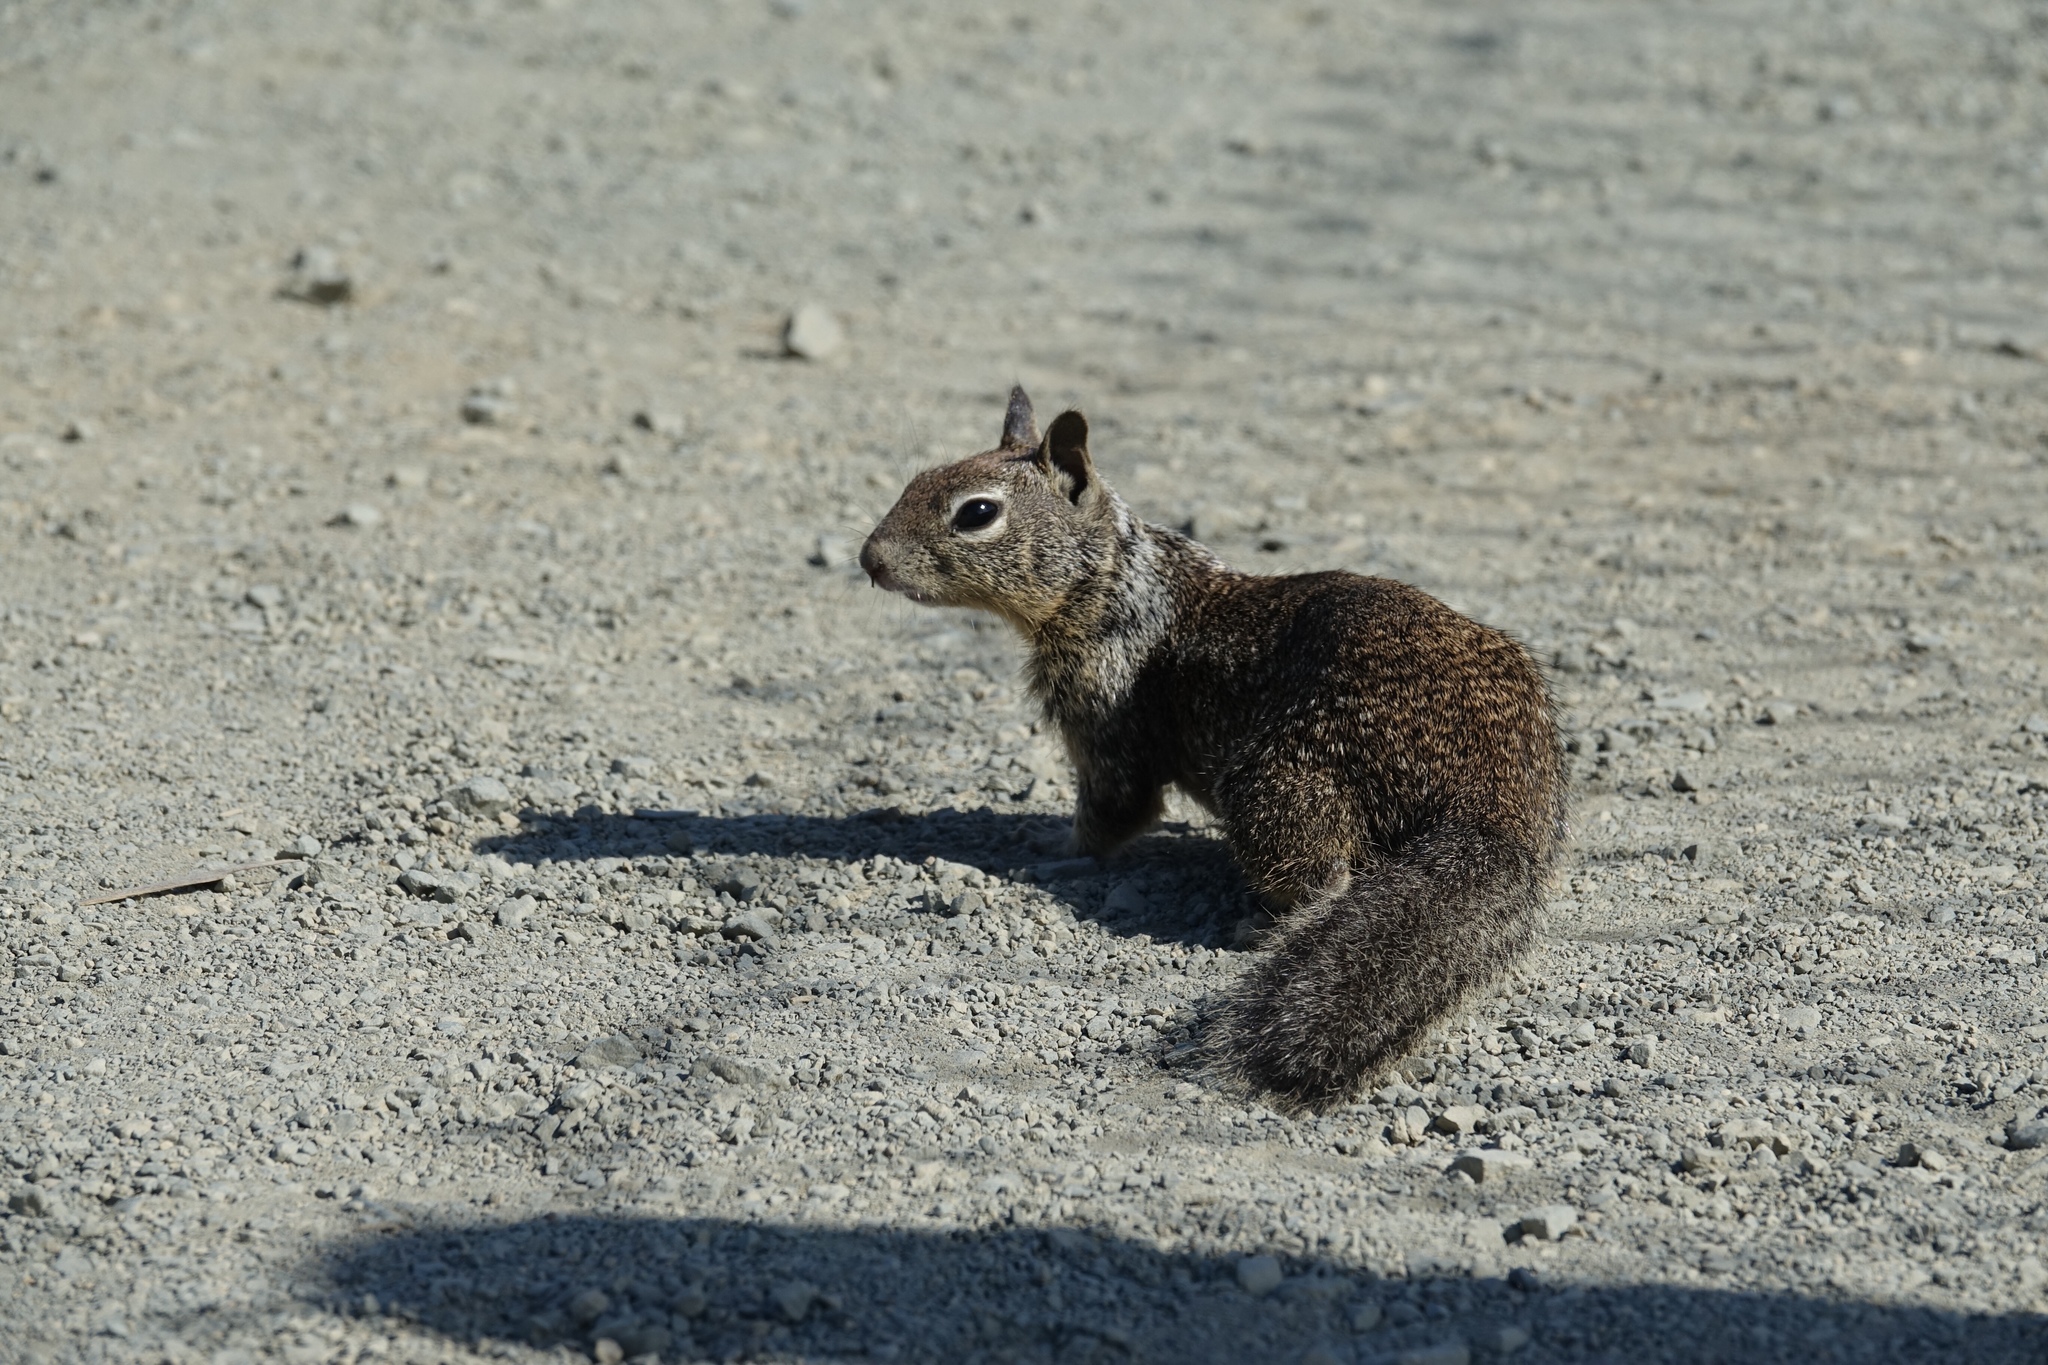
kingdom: Animalia
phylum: Chordata
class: Mammalia
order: Rodentia
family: Sciuridae
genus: Otospermophilus
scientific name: Otospermophilus beecheyi
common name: California ground squirrel
